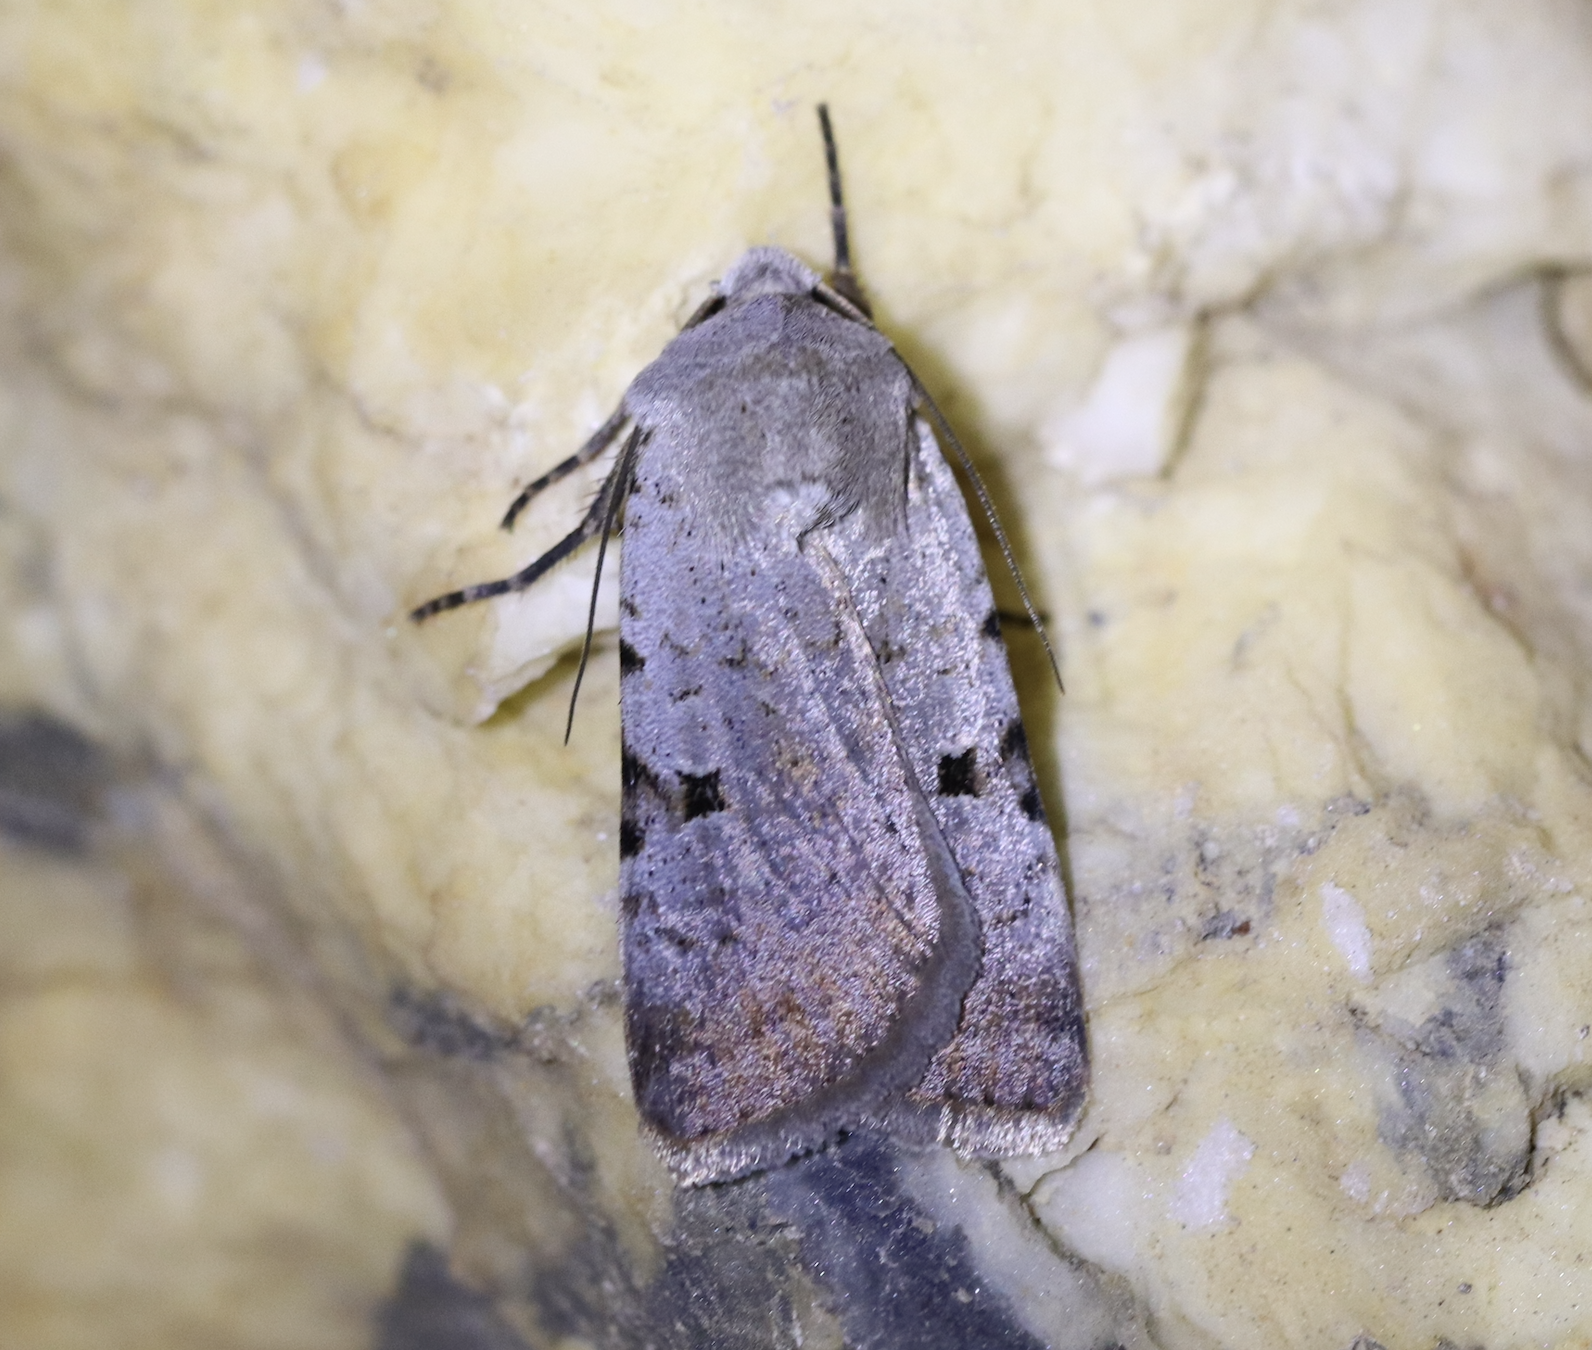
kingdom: Animalia
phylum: Arthropoda
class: Insecta
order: Lepidoptera
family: Noctuidae
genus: Chersotis
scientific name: Chersotis margaritacea
